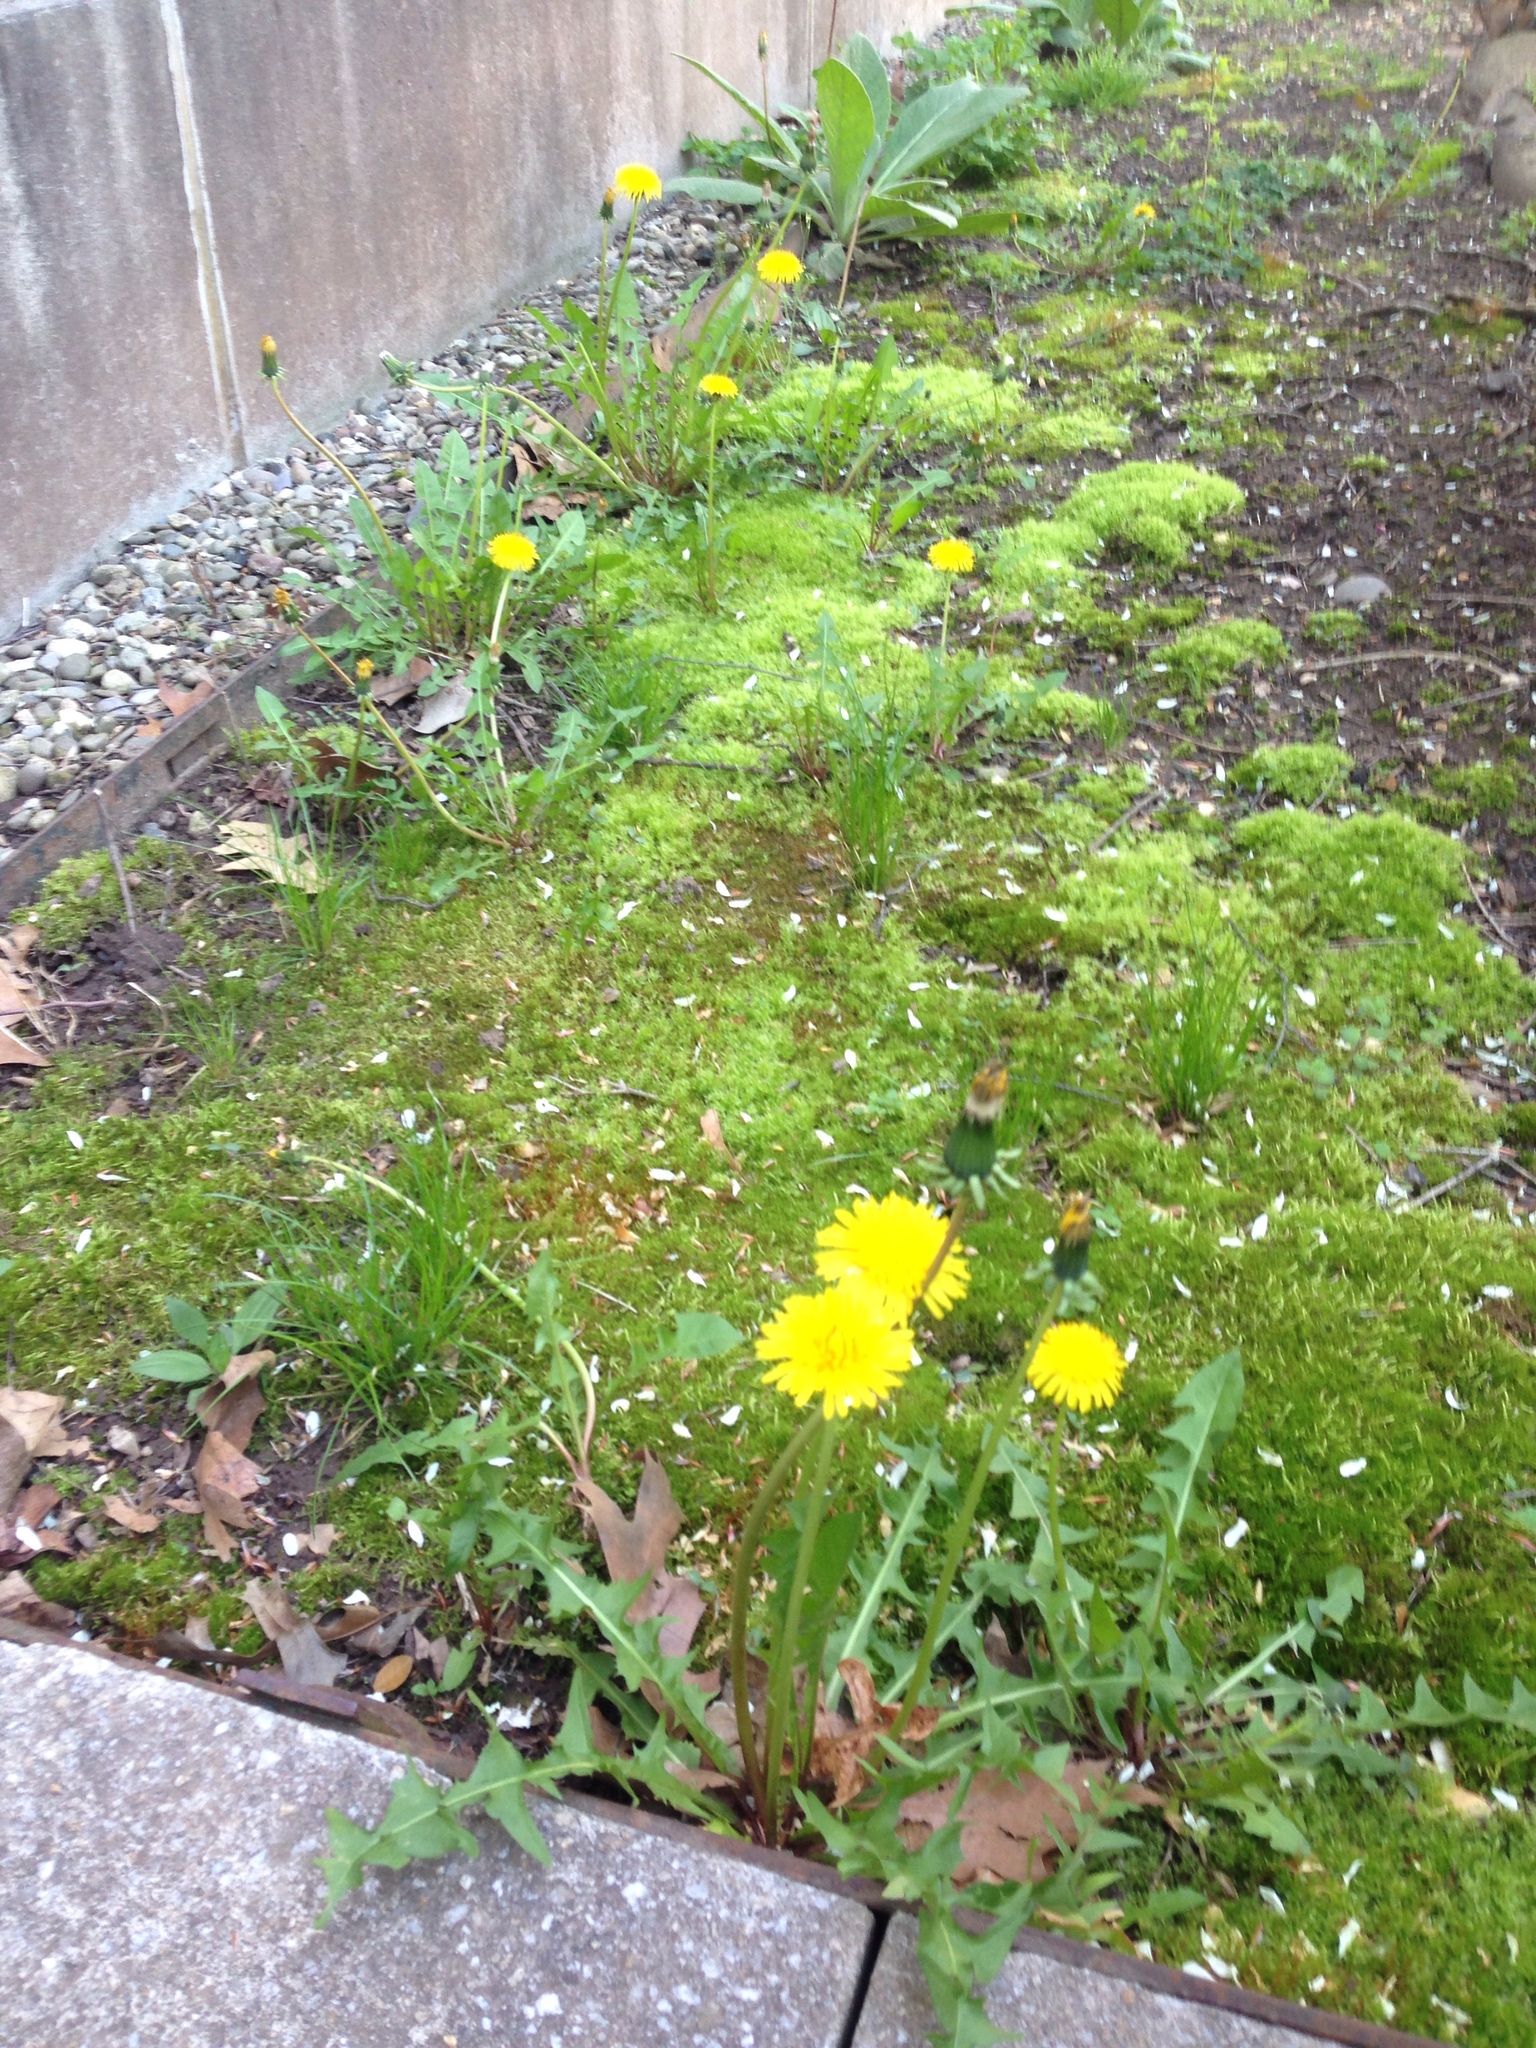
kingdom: Plantae
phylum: Tracheophyta
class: Magnoliopsida
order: Asterales
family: Asteraceae
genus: Taraxacum
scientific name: Taraxacum officinale
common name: Common dandelion
